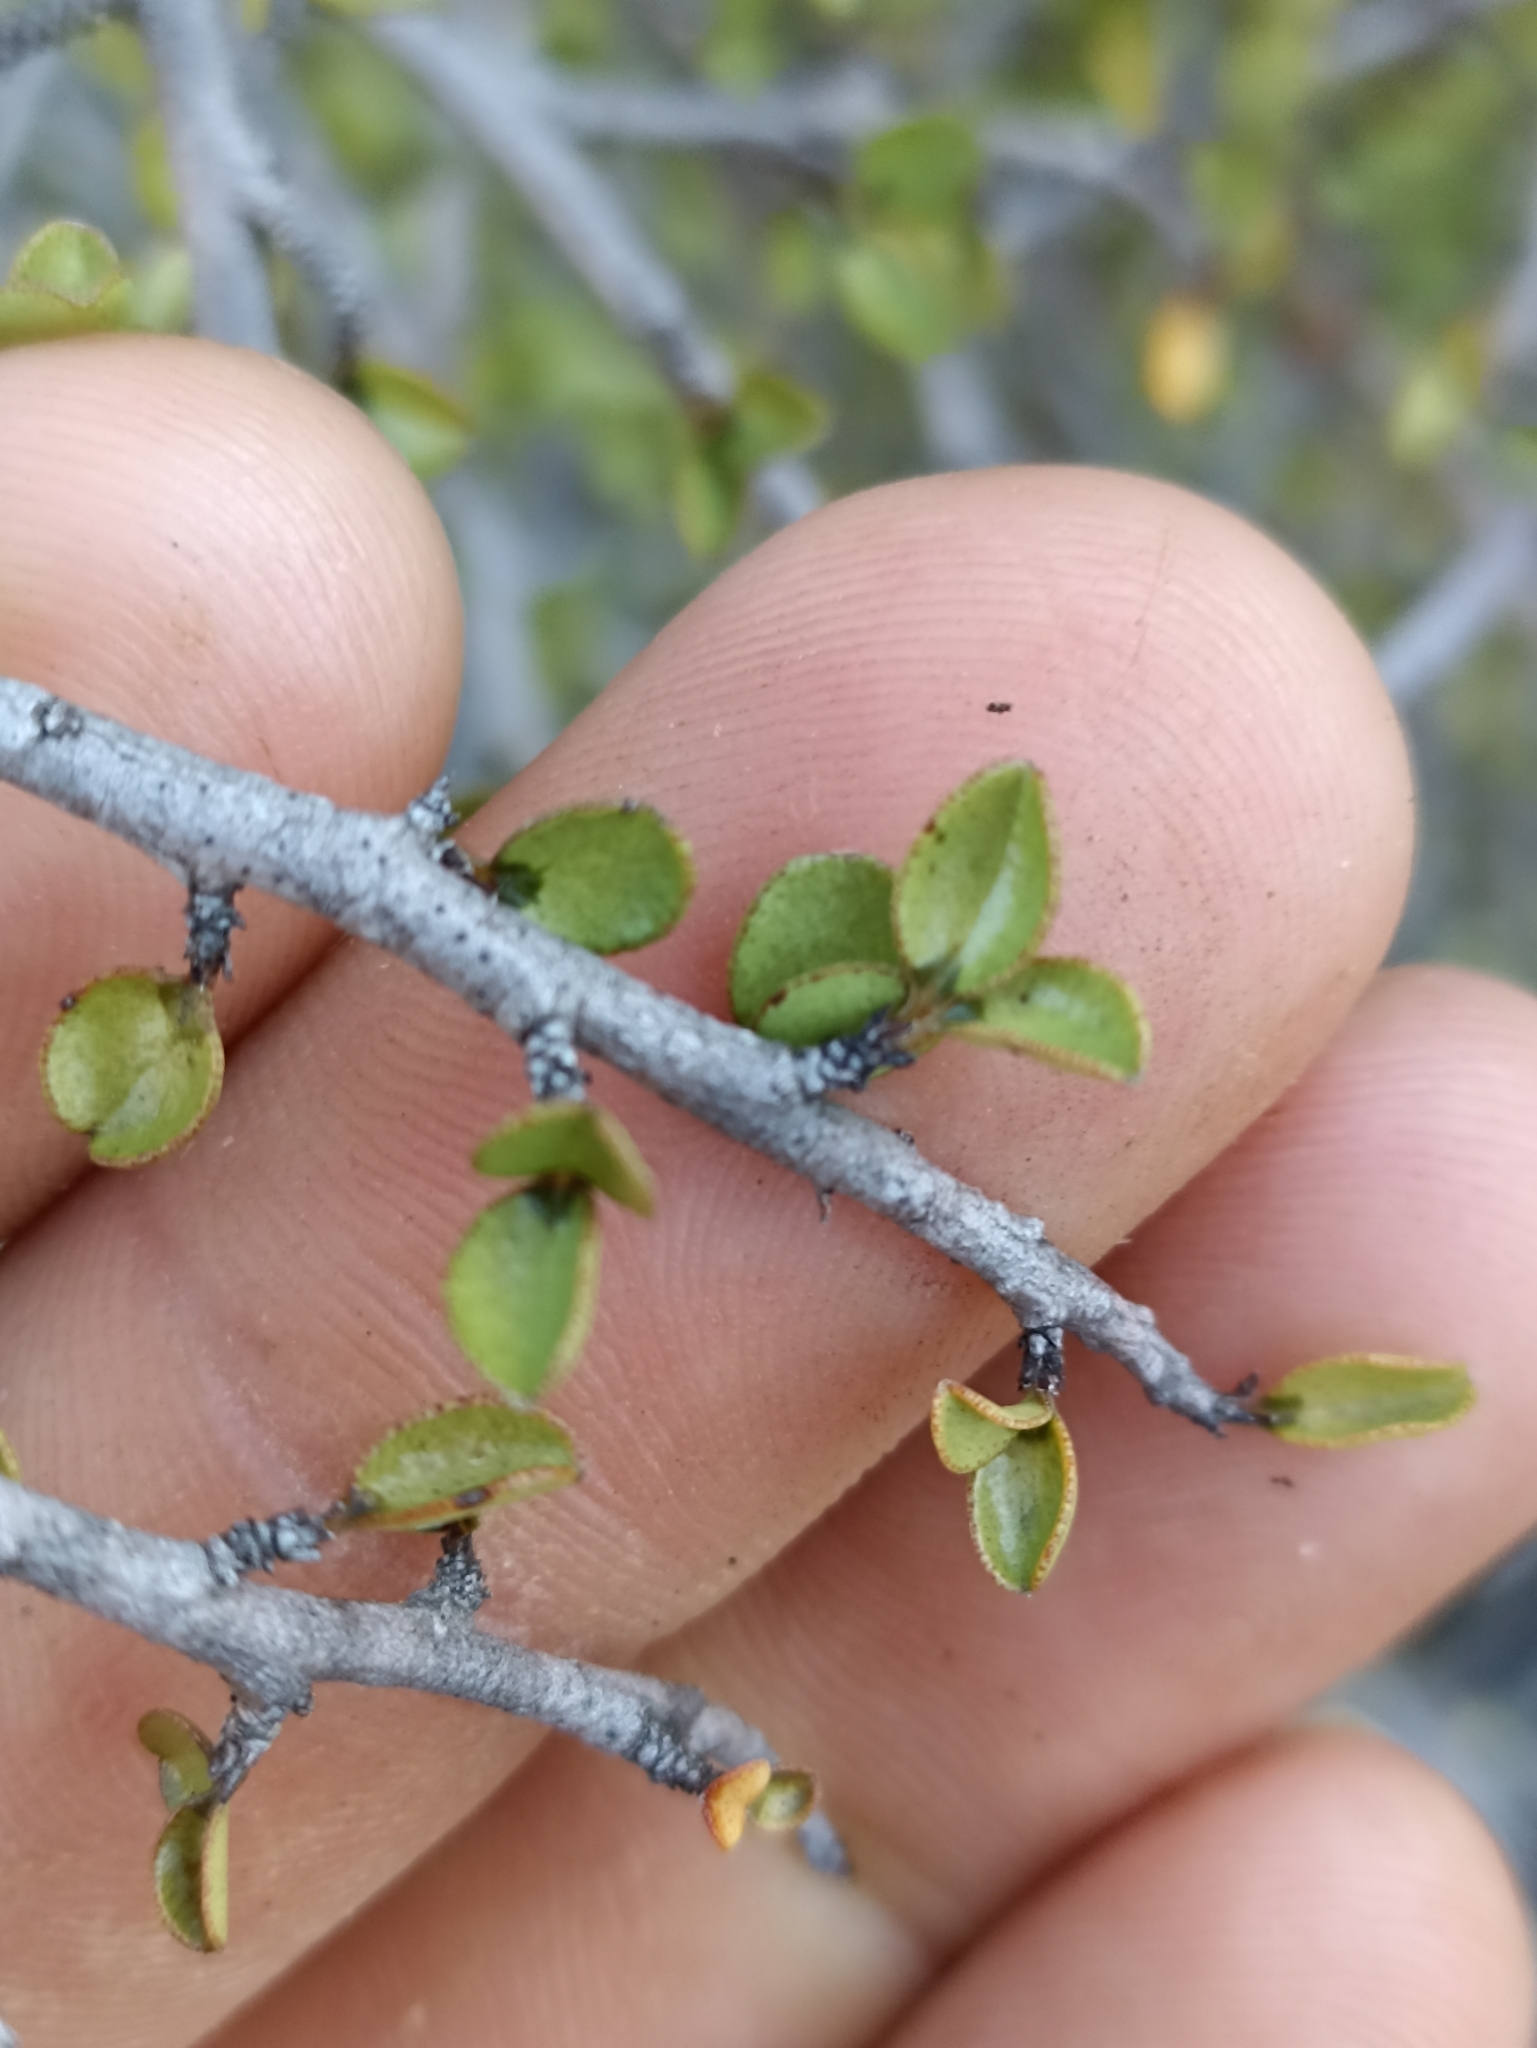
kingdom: Plantae
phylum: Tracheophyta
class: Magnoliopsida
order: Ericales
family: Primulaceae
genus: Myrsine
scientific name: Myrsine divaricata
